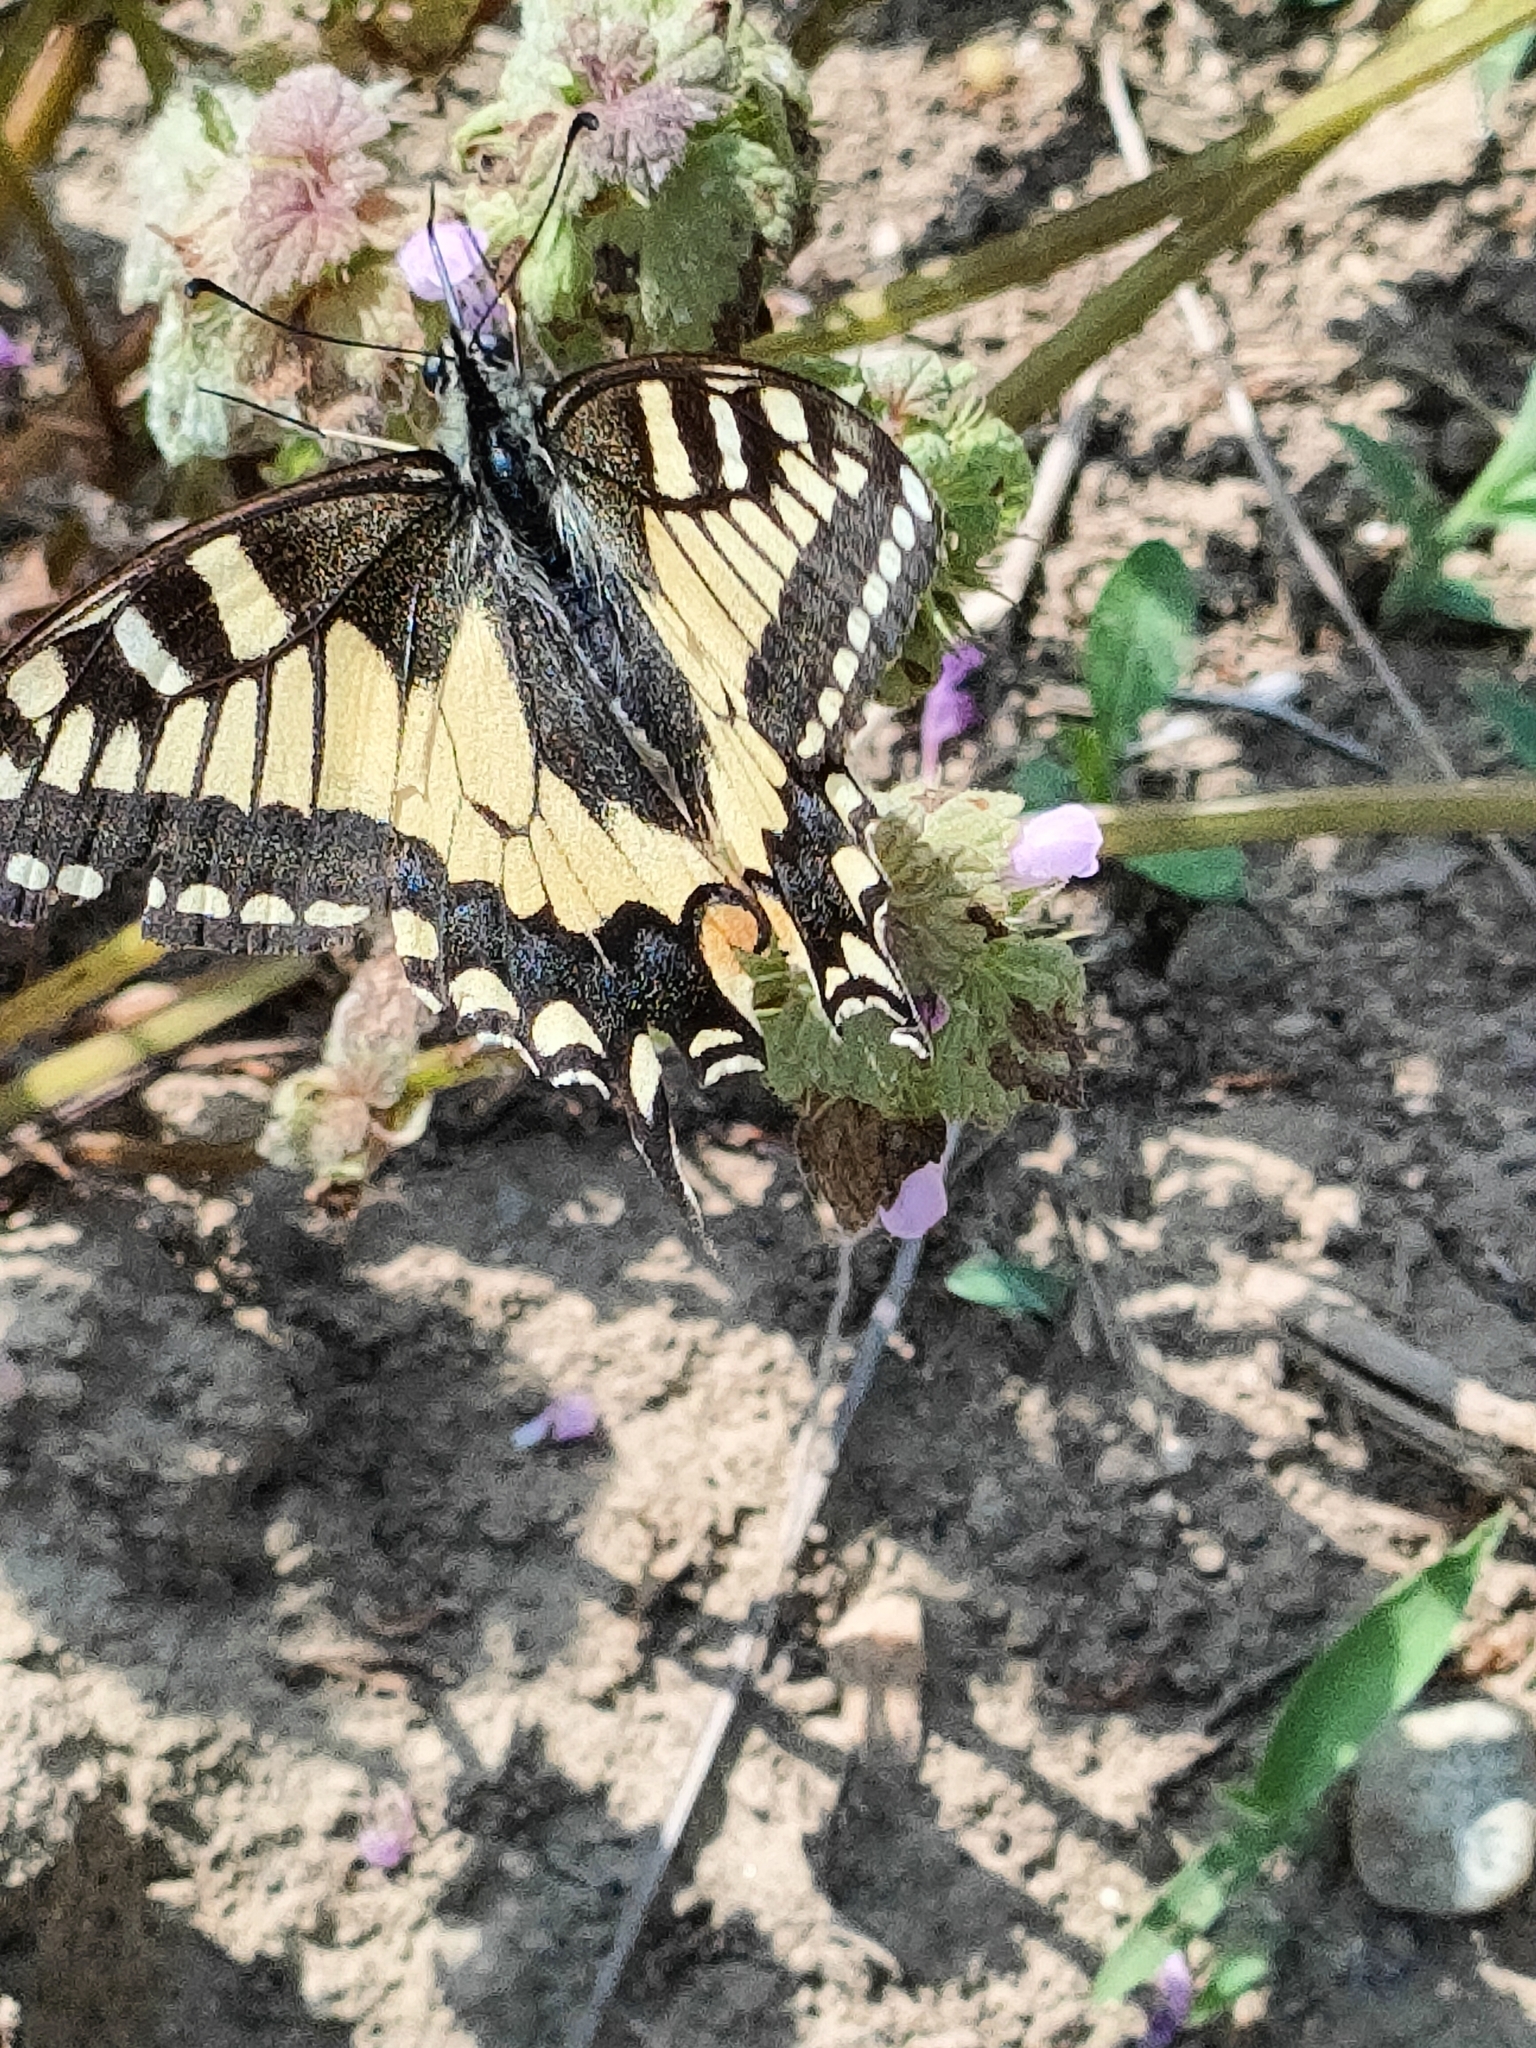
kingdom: Animalia
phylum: Arthropoda
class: Insecta
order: Lepidoptera
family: Papilionidae
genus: Papilio
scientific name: Papilio machaon
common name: Swallowtail
